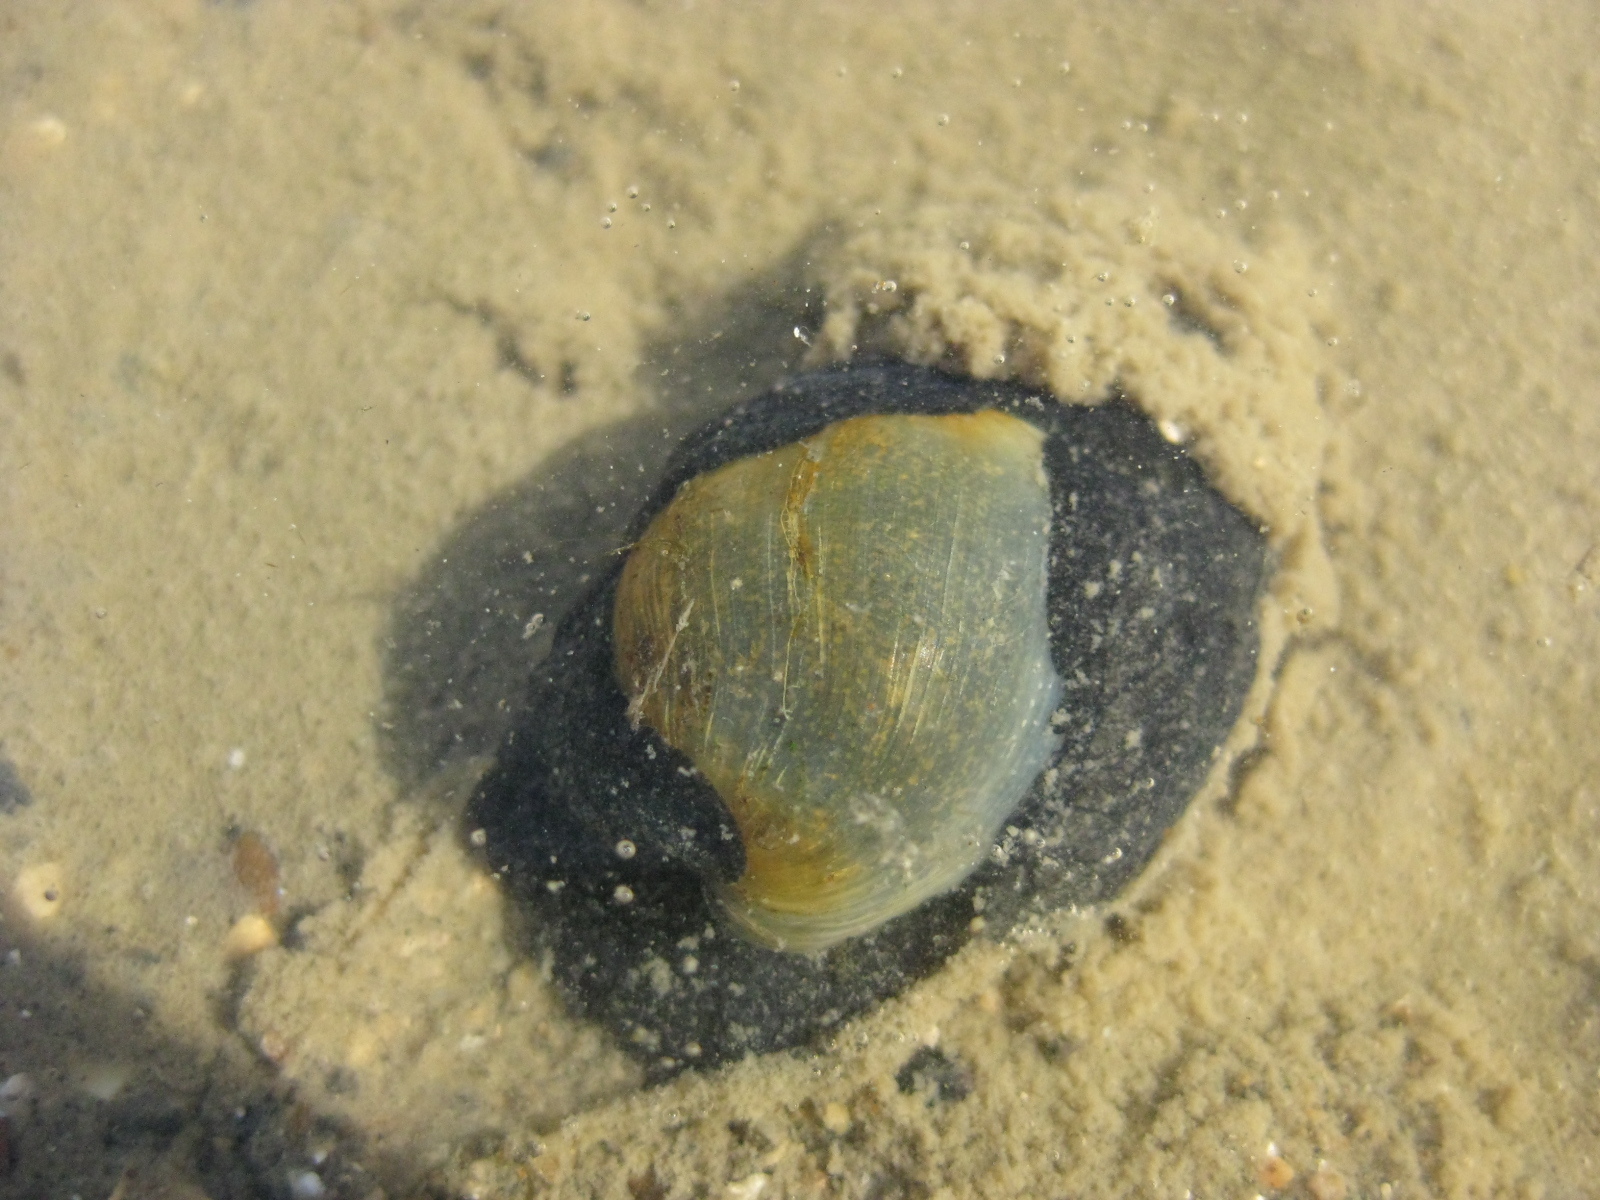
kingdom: Animalia
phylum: Mollusca
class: Gastropoda
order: Cephalaspidea
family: Haminoeidae
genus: Papawera
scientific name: Papawera zelandiae
